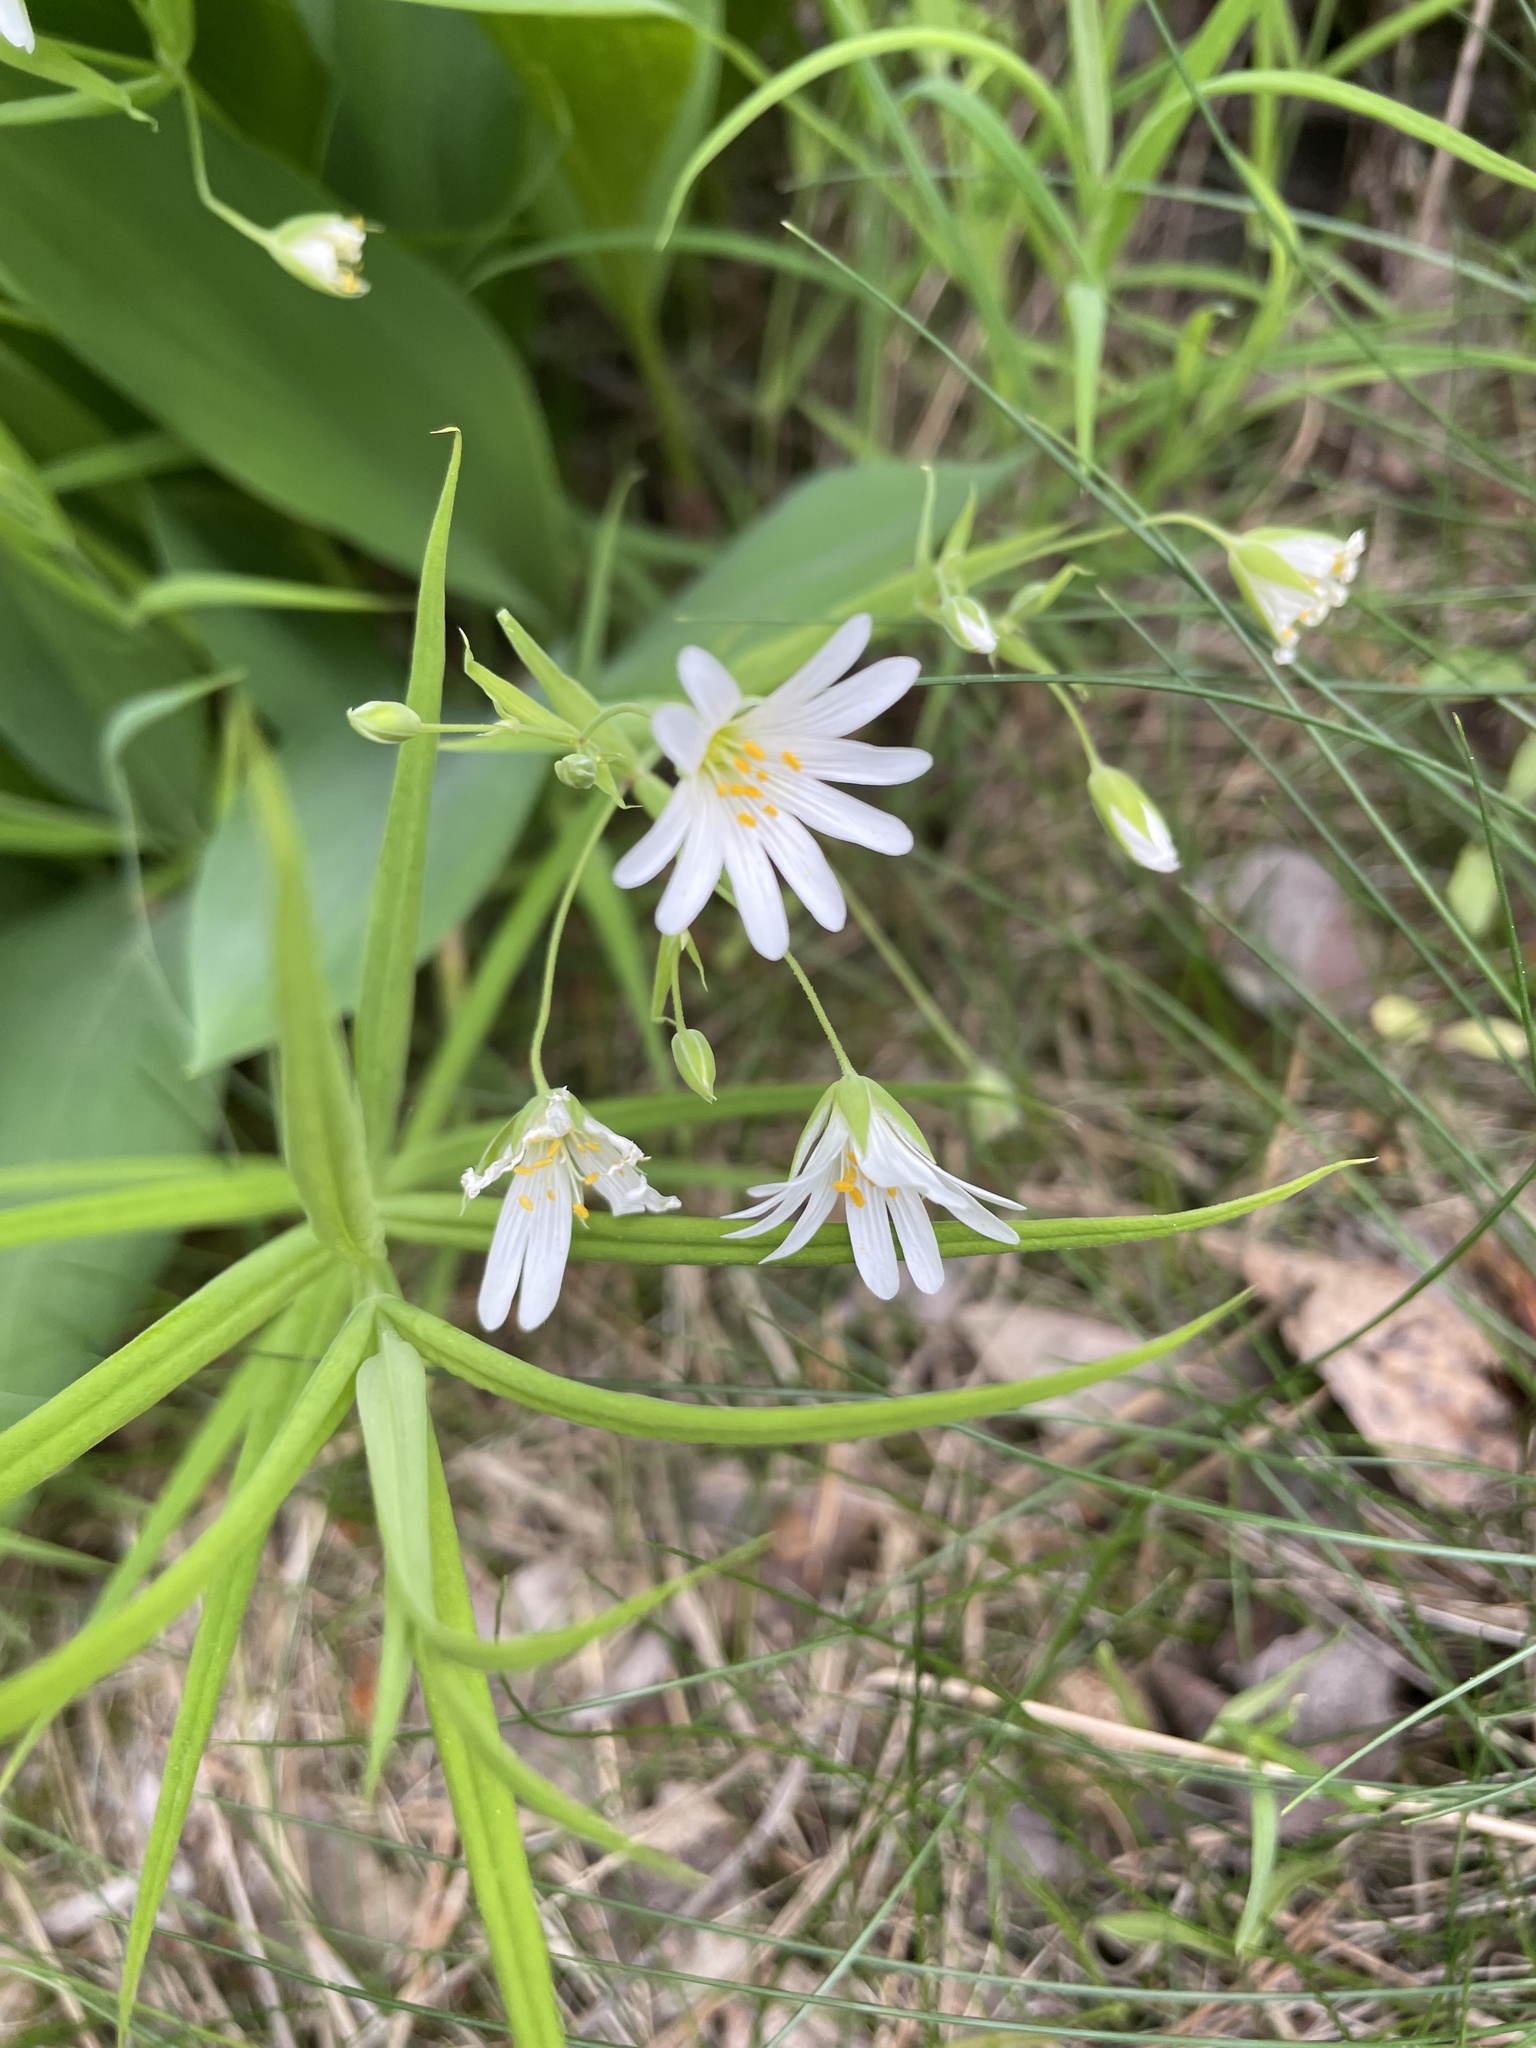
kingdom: Plantae
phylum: Tracheophyta
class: Magnoliopsida
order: Caryophyllales
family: Caryophyllaceae
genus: Rabelera
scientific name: Rabelera holostea
